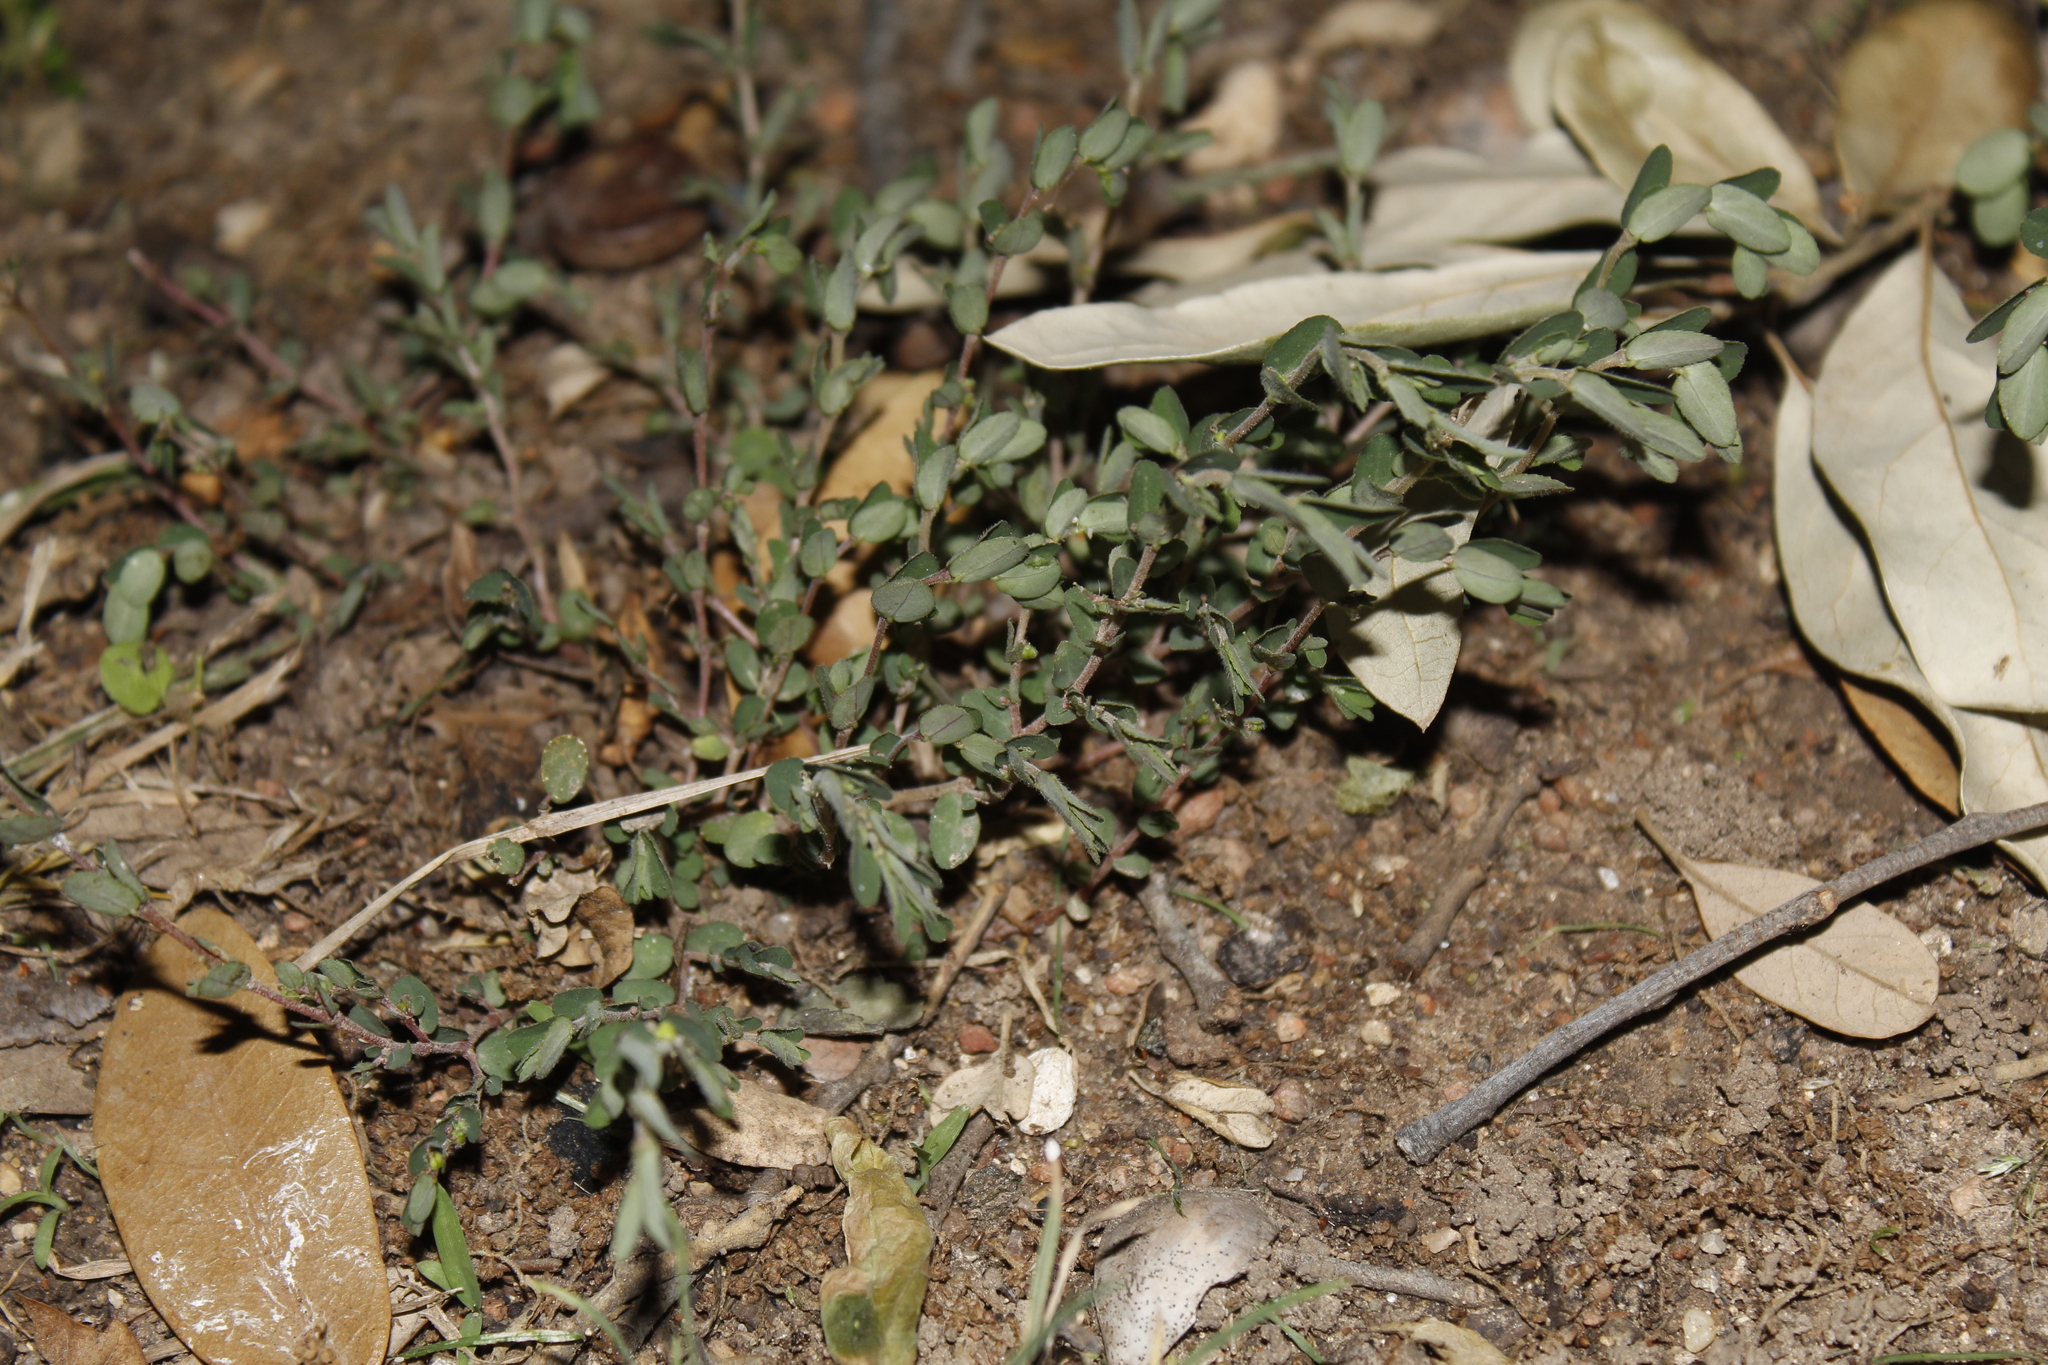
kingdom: Plantae
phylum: Tracheophyta
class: Magnoliopsida
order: Malpighiales
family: Euphorbiaceae
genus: Euphorbia
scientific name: Euphorbia prostrata
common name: Prostrate sandmat
